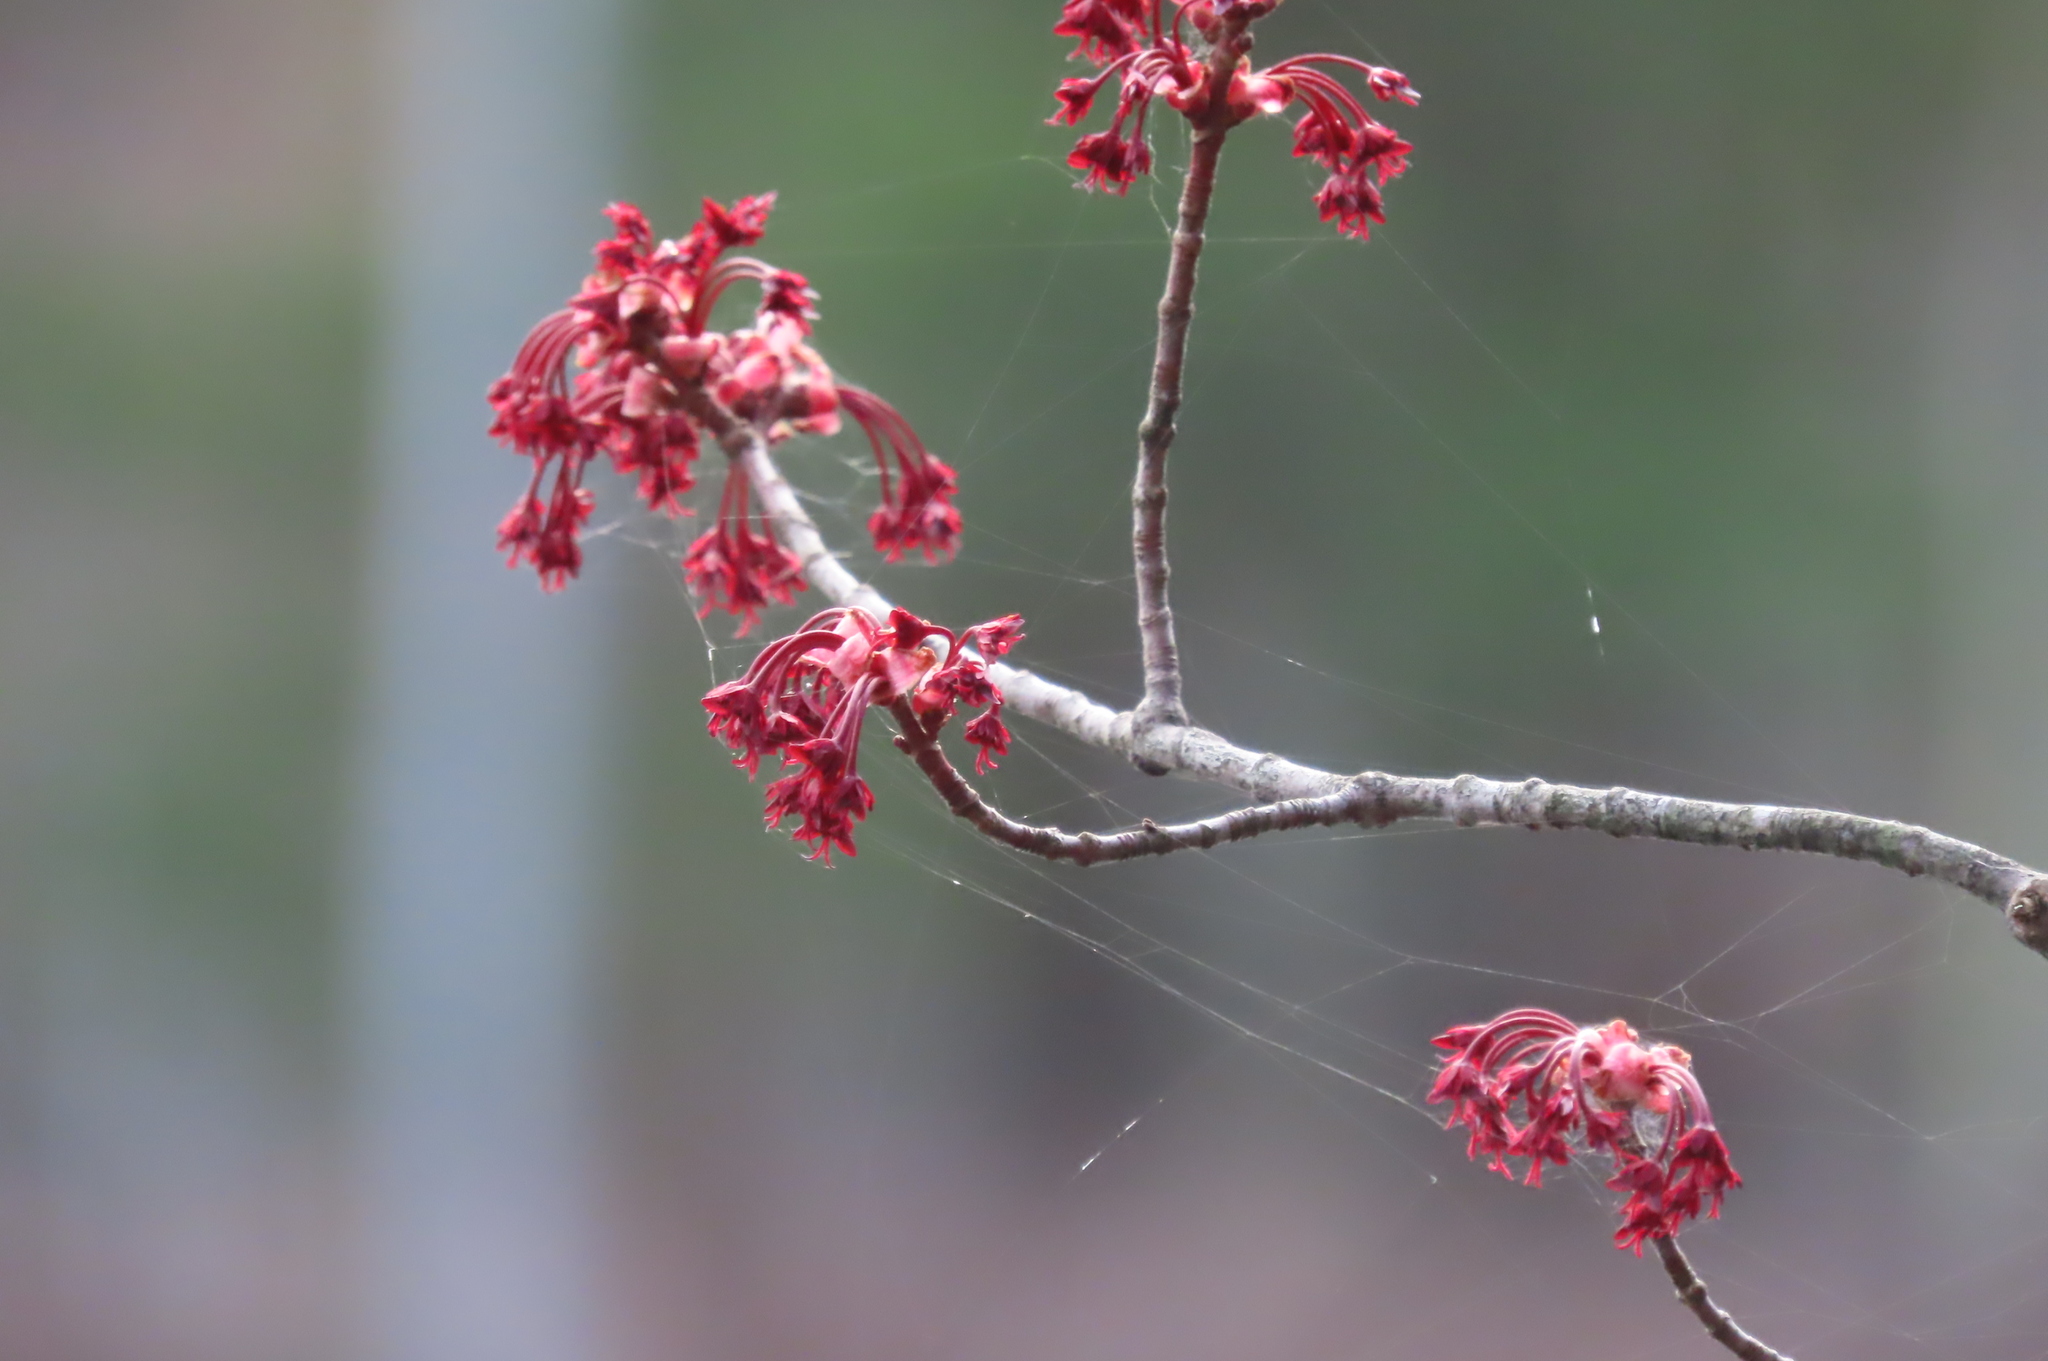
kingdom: Plantae
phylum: Tracheophyta
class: Magnoliopsida
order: Sapindales
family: Sapindaceae
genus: Acer
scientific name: Acer rubrum
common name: Red maple
